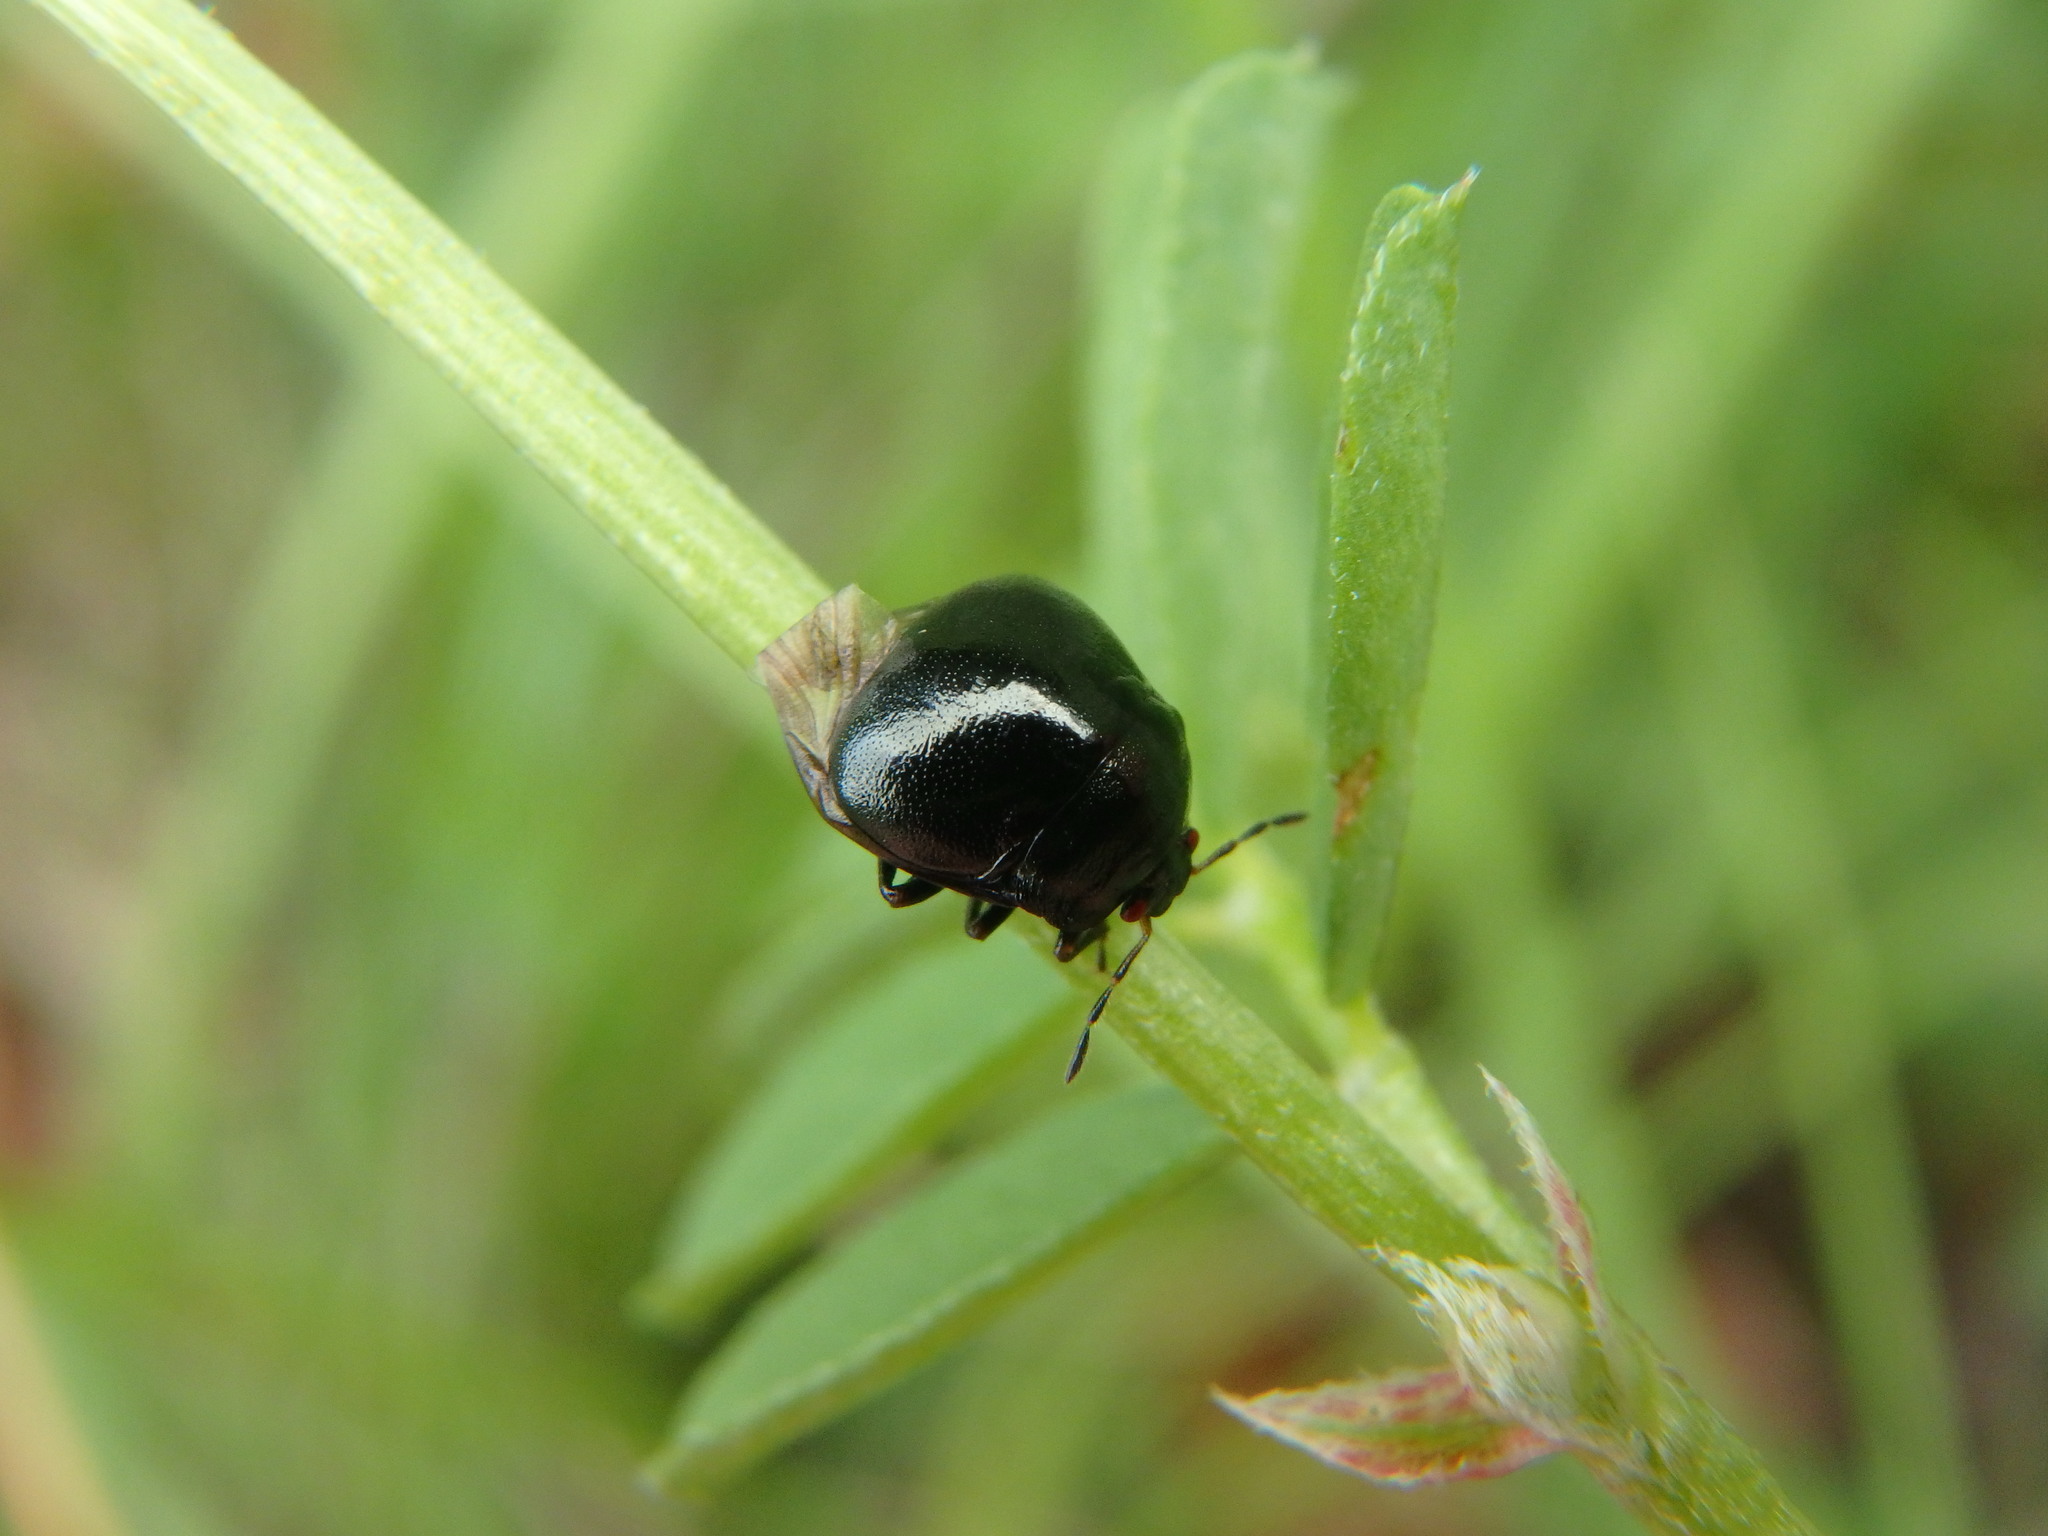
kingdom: Animalia
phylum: Arthropoda
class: Insecta
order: Hemiptera
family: Plataspidae
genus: Coptosoma
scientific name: Coptosoma scutellatum
